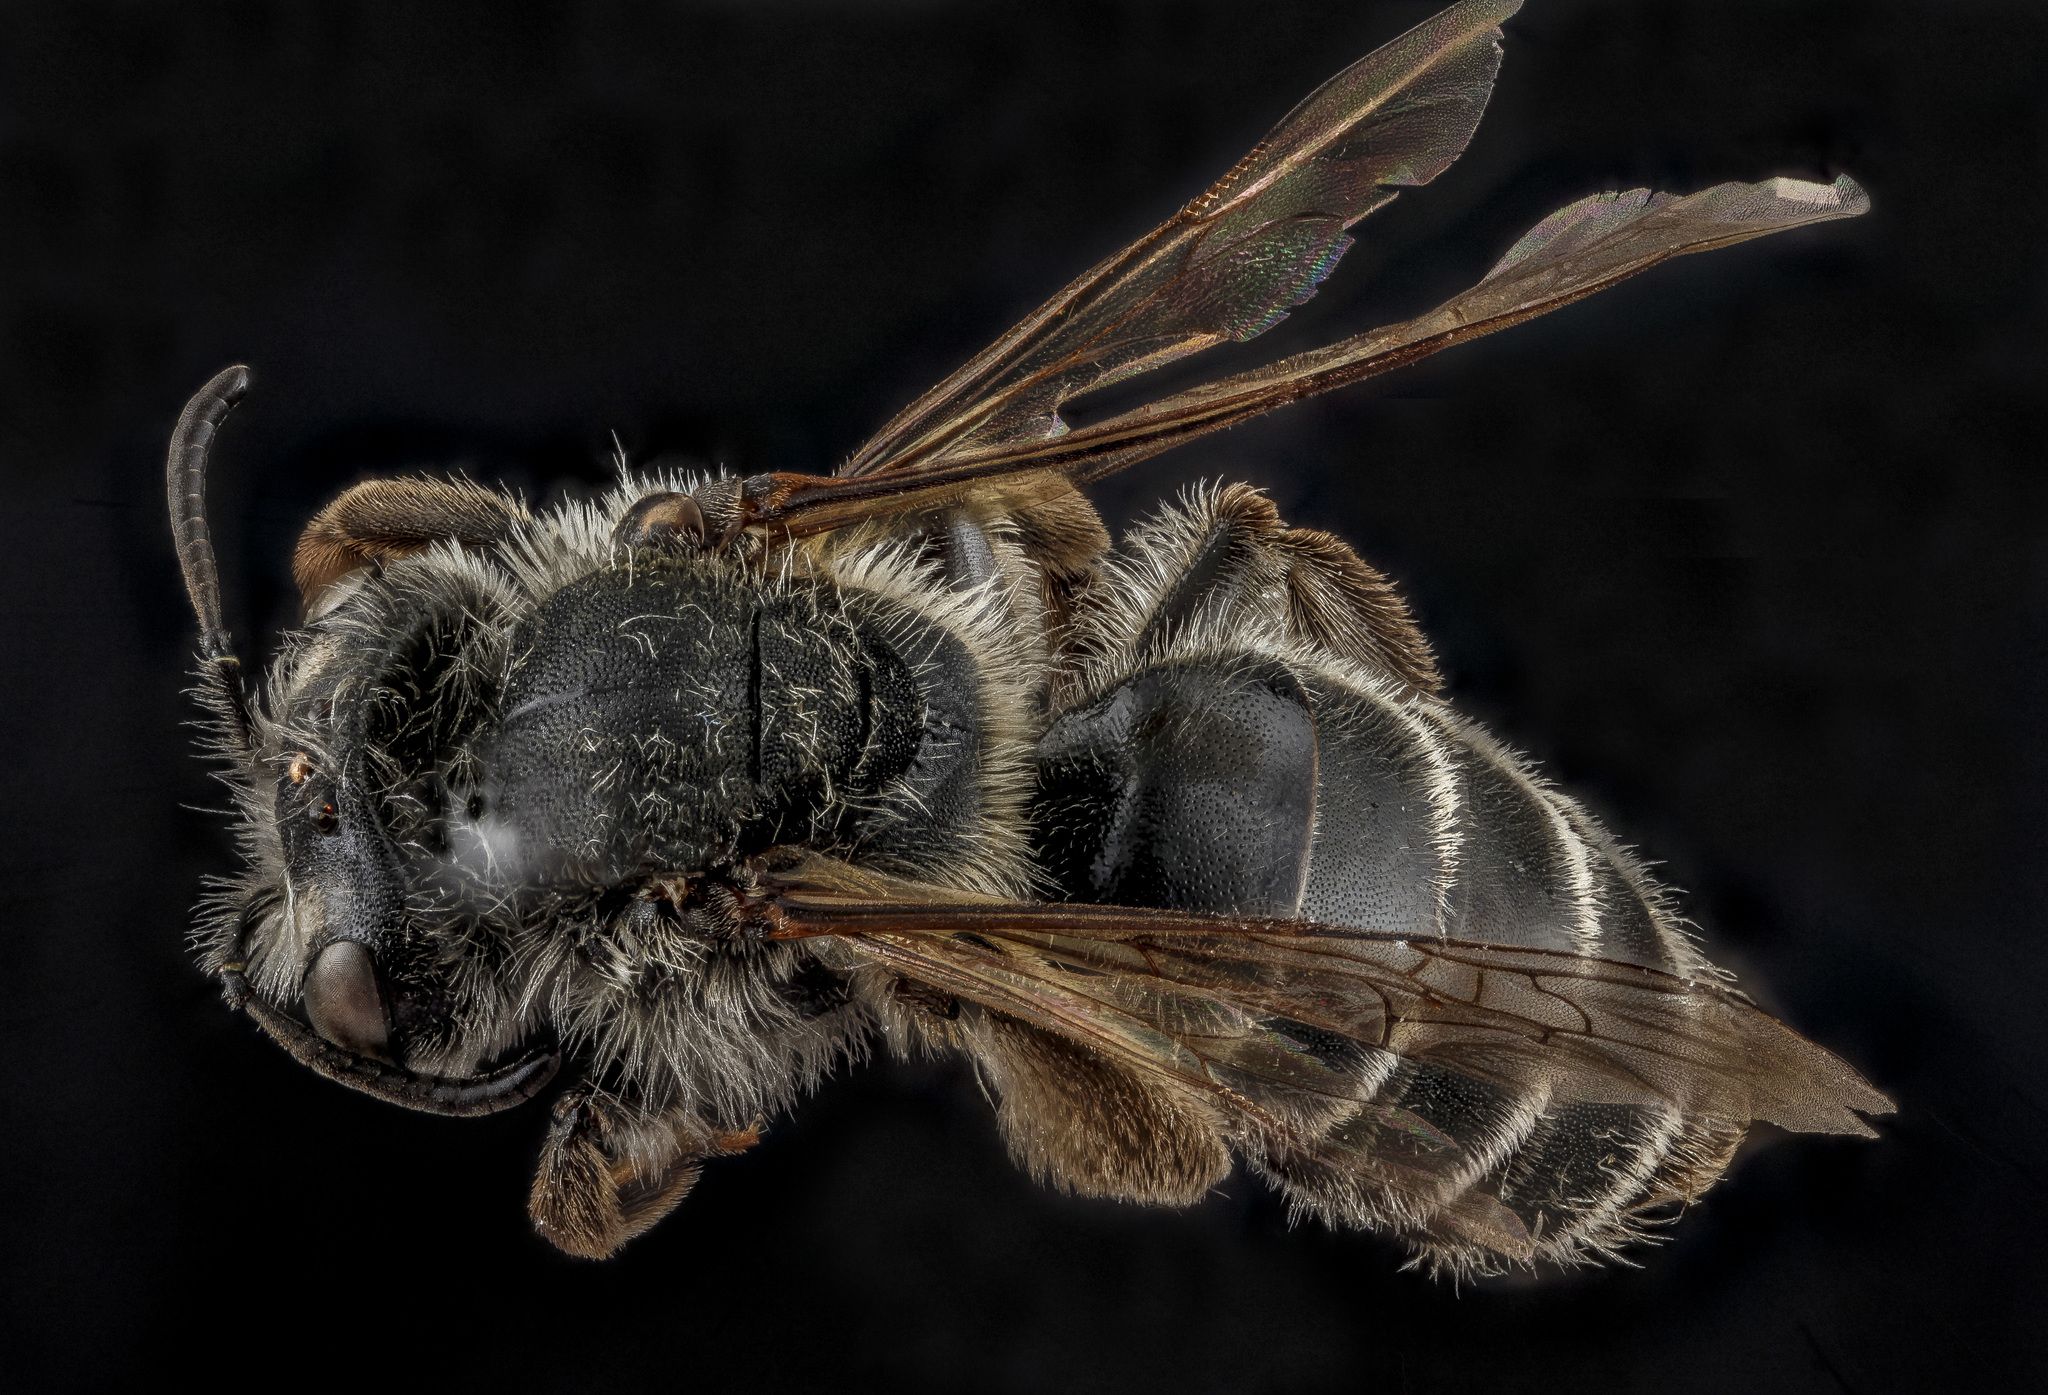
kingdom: Animalia
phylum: Arthropoda
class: Insecta
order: Hymenoptera
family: Andrenidae
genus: Andrena
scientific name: Andrena pallidiscopa
